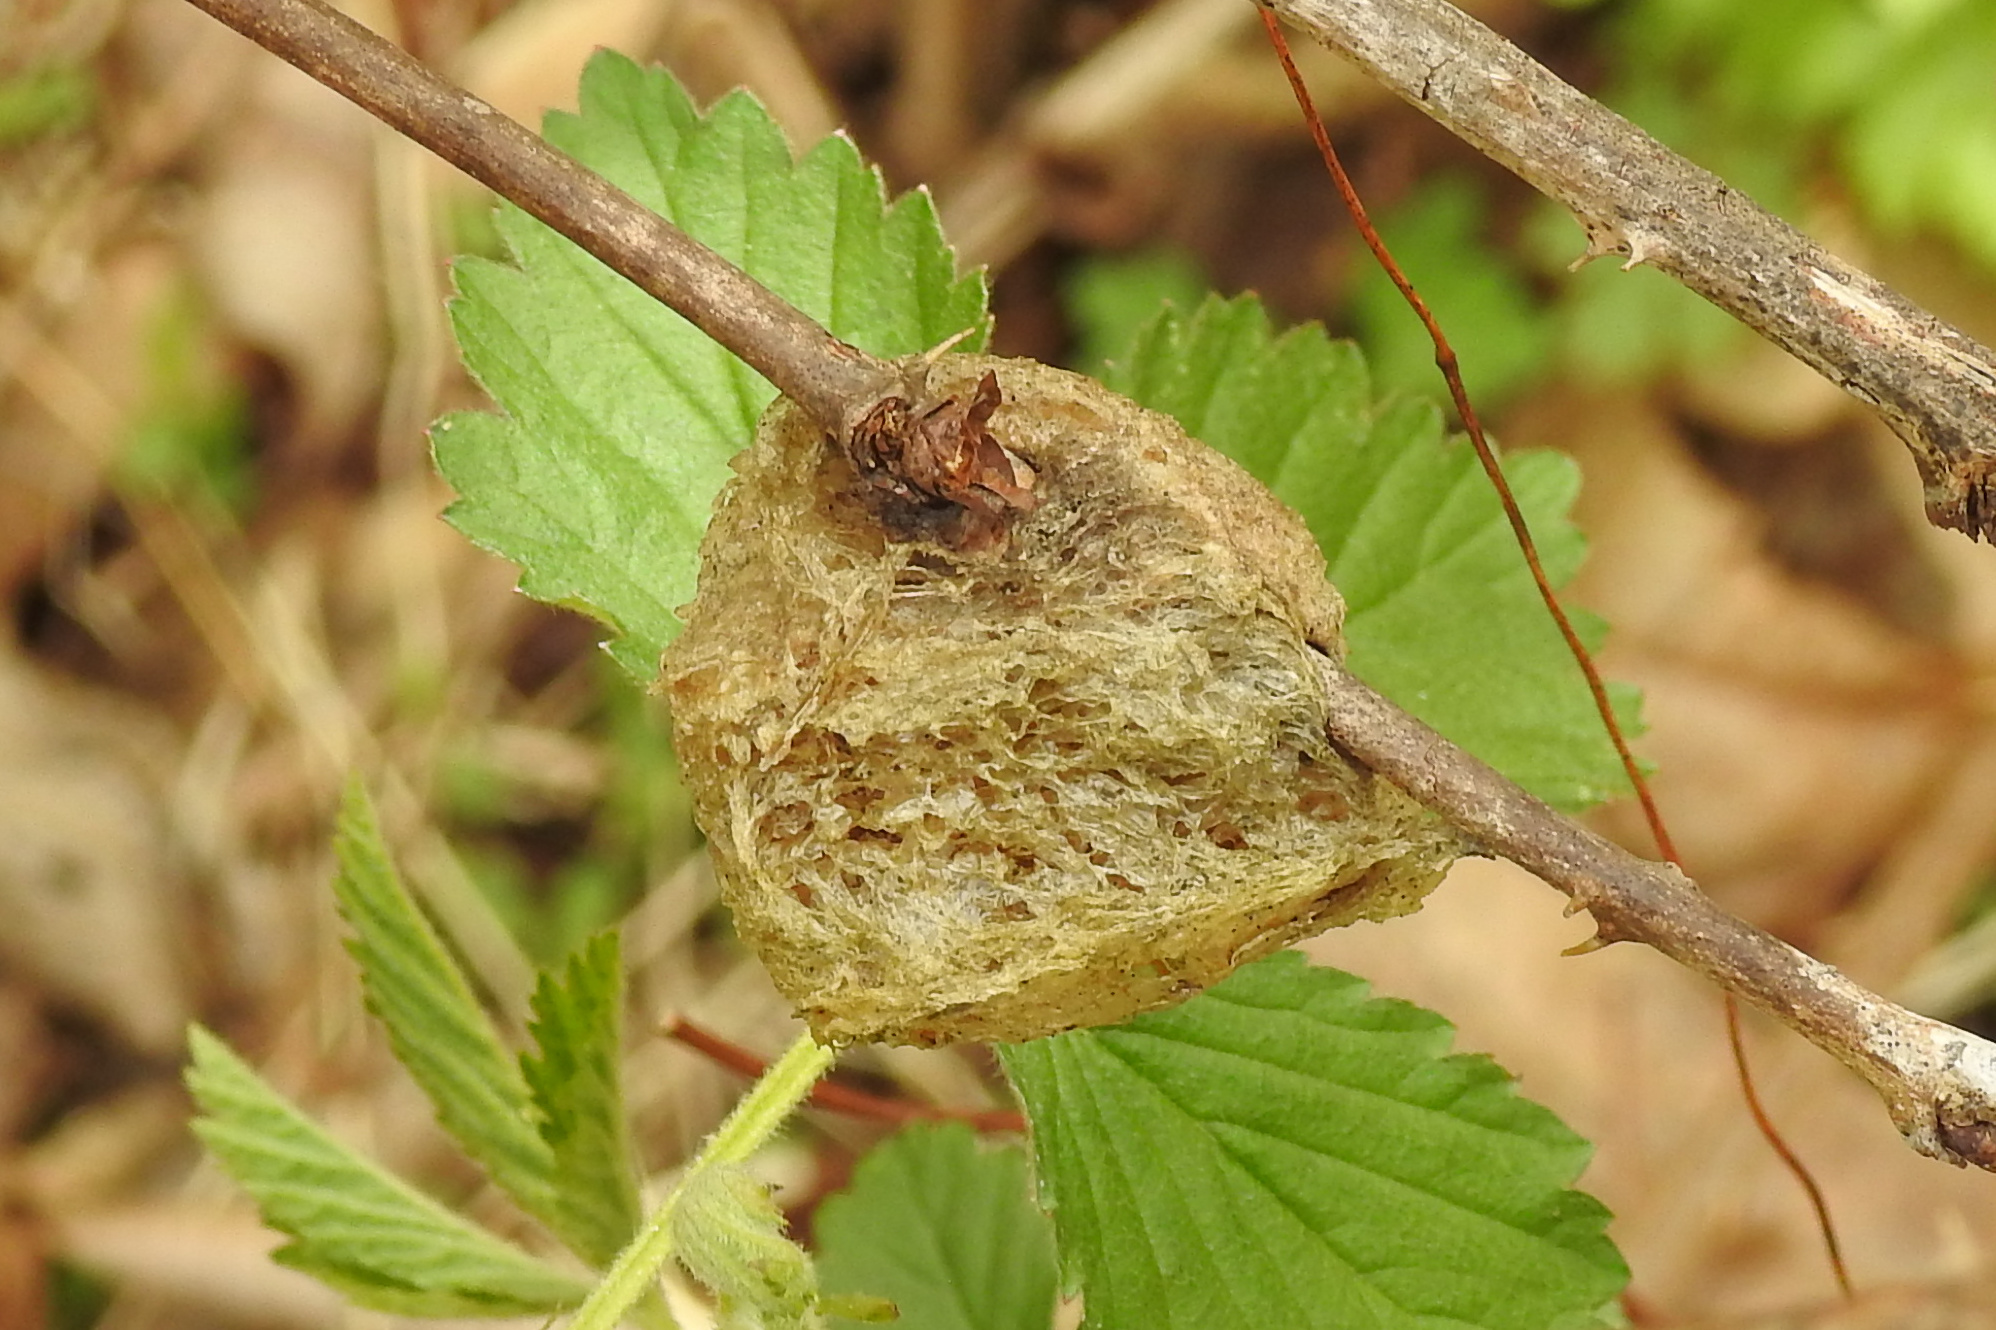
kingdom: Animalia
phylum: Arthropoda
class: Insecta
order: Mantodea
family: Mantidae
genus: Tenodera
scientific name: Tenodera sinensis
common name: Chinese mantis
